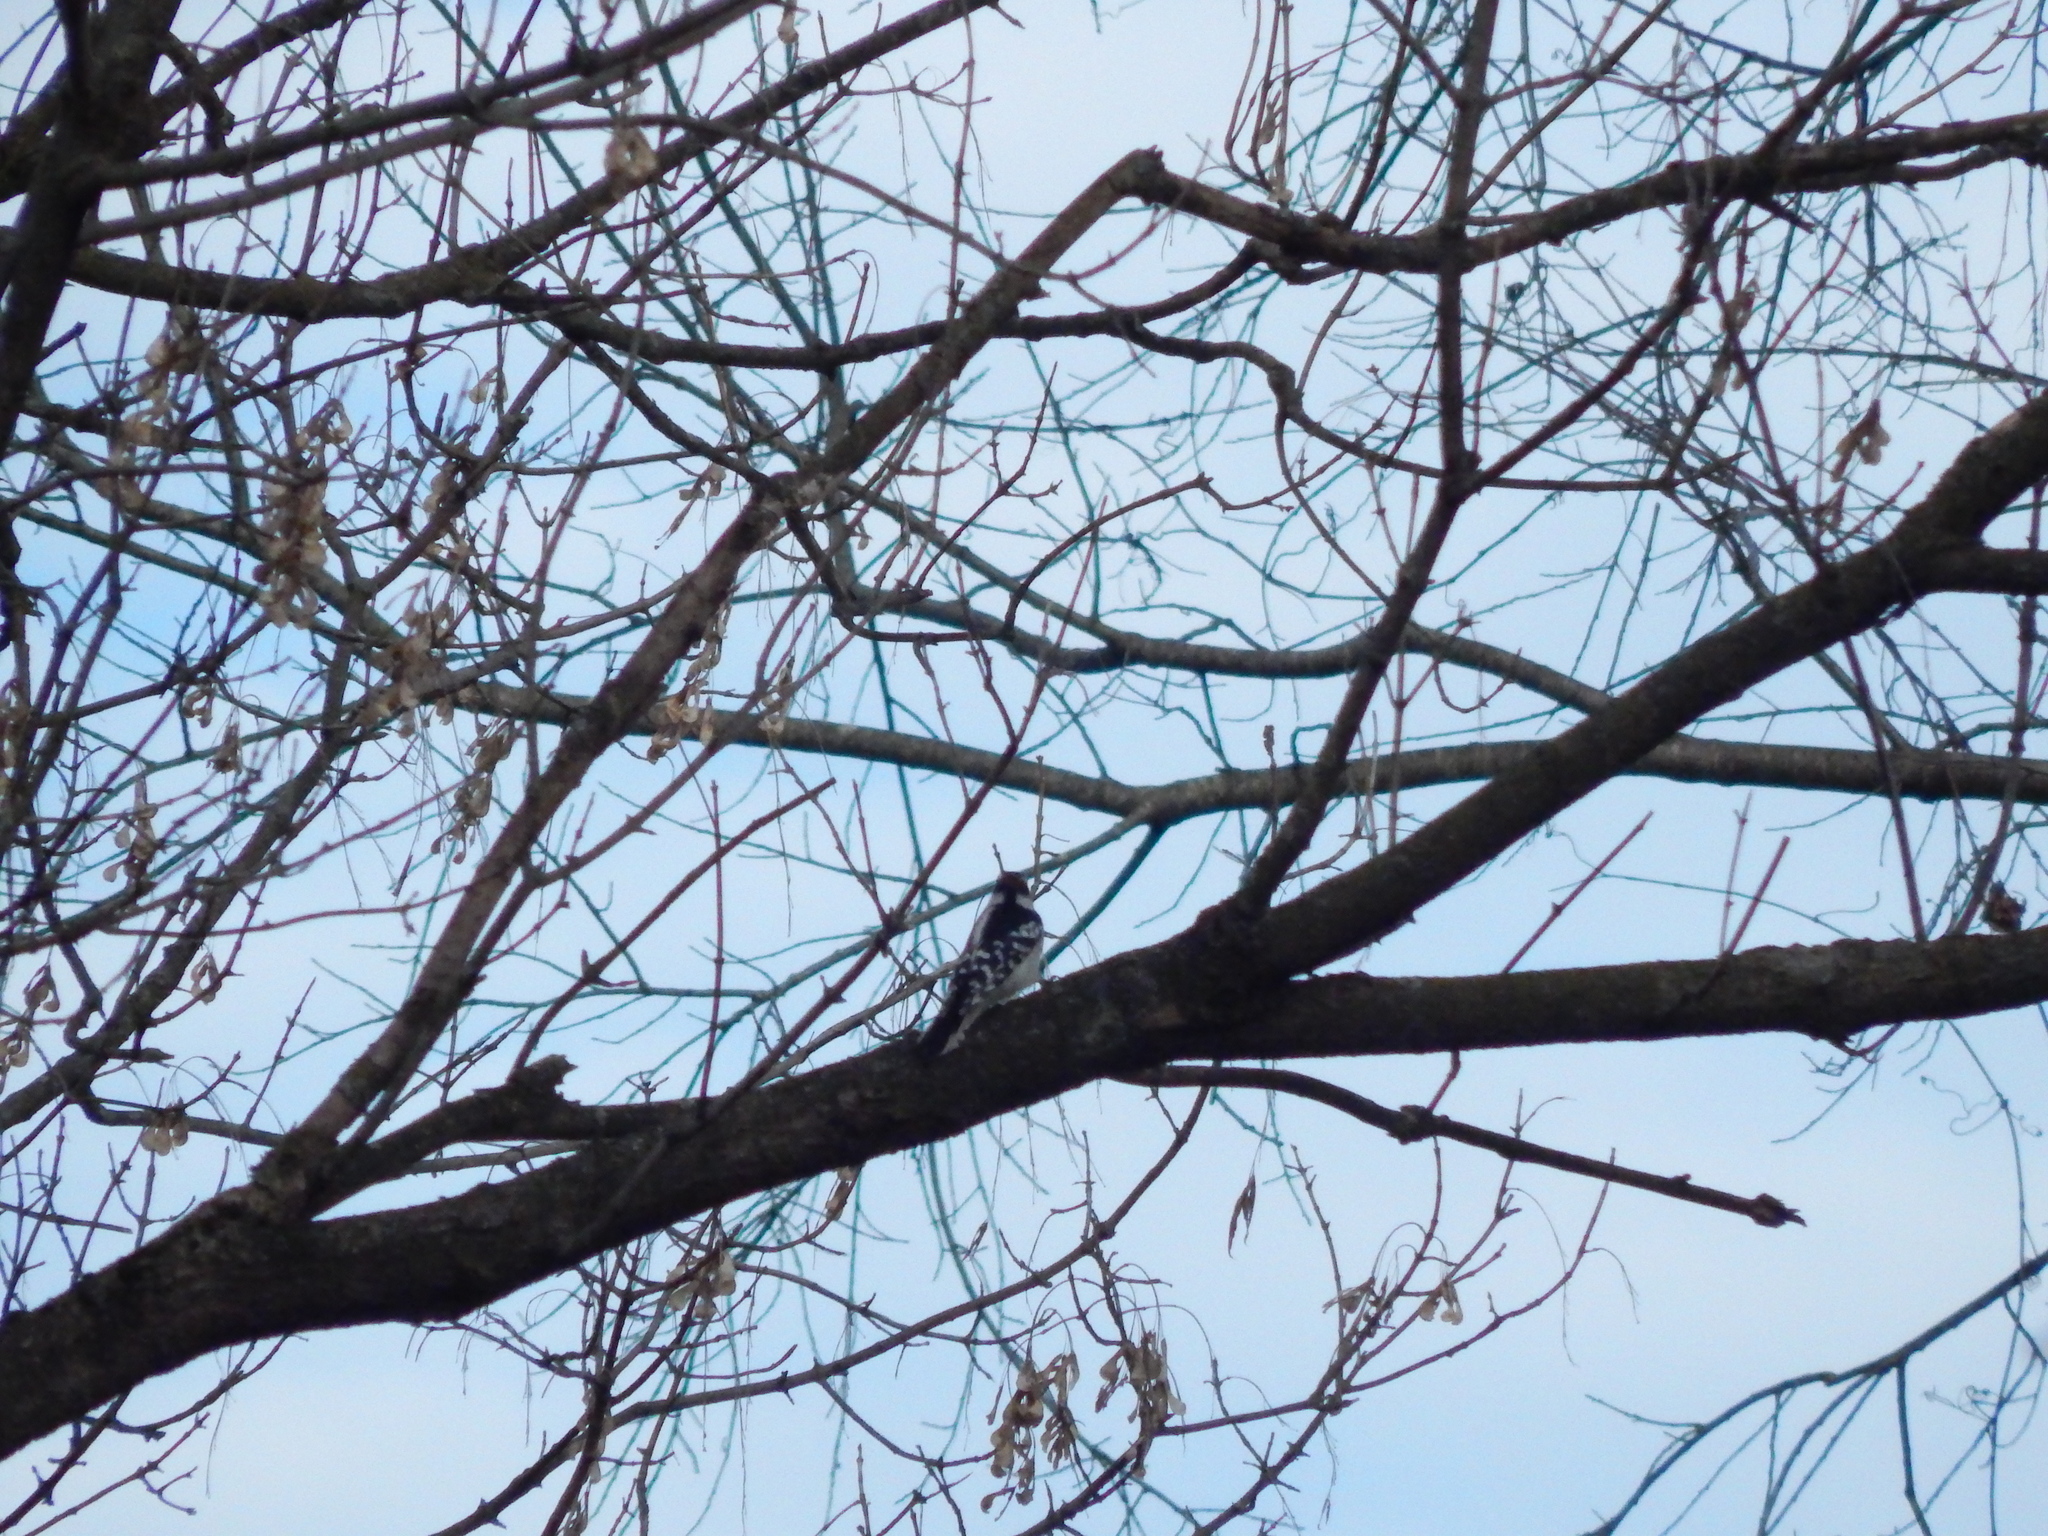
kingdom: Animalia
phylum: Chordata
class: Aves
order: Piciformes
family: Picidae
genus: Dryobates
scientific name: Dryobates pubescens
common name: Downy woodpecker
